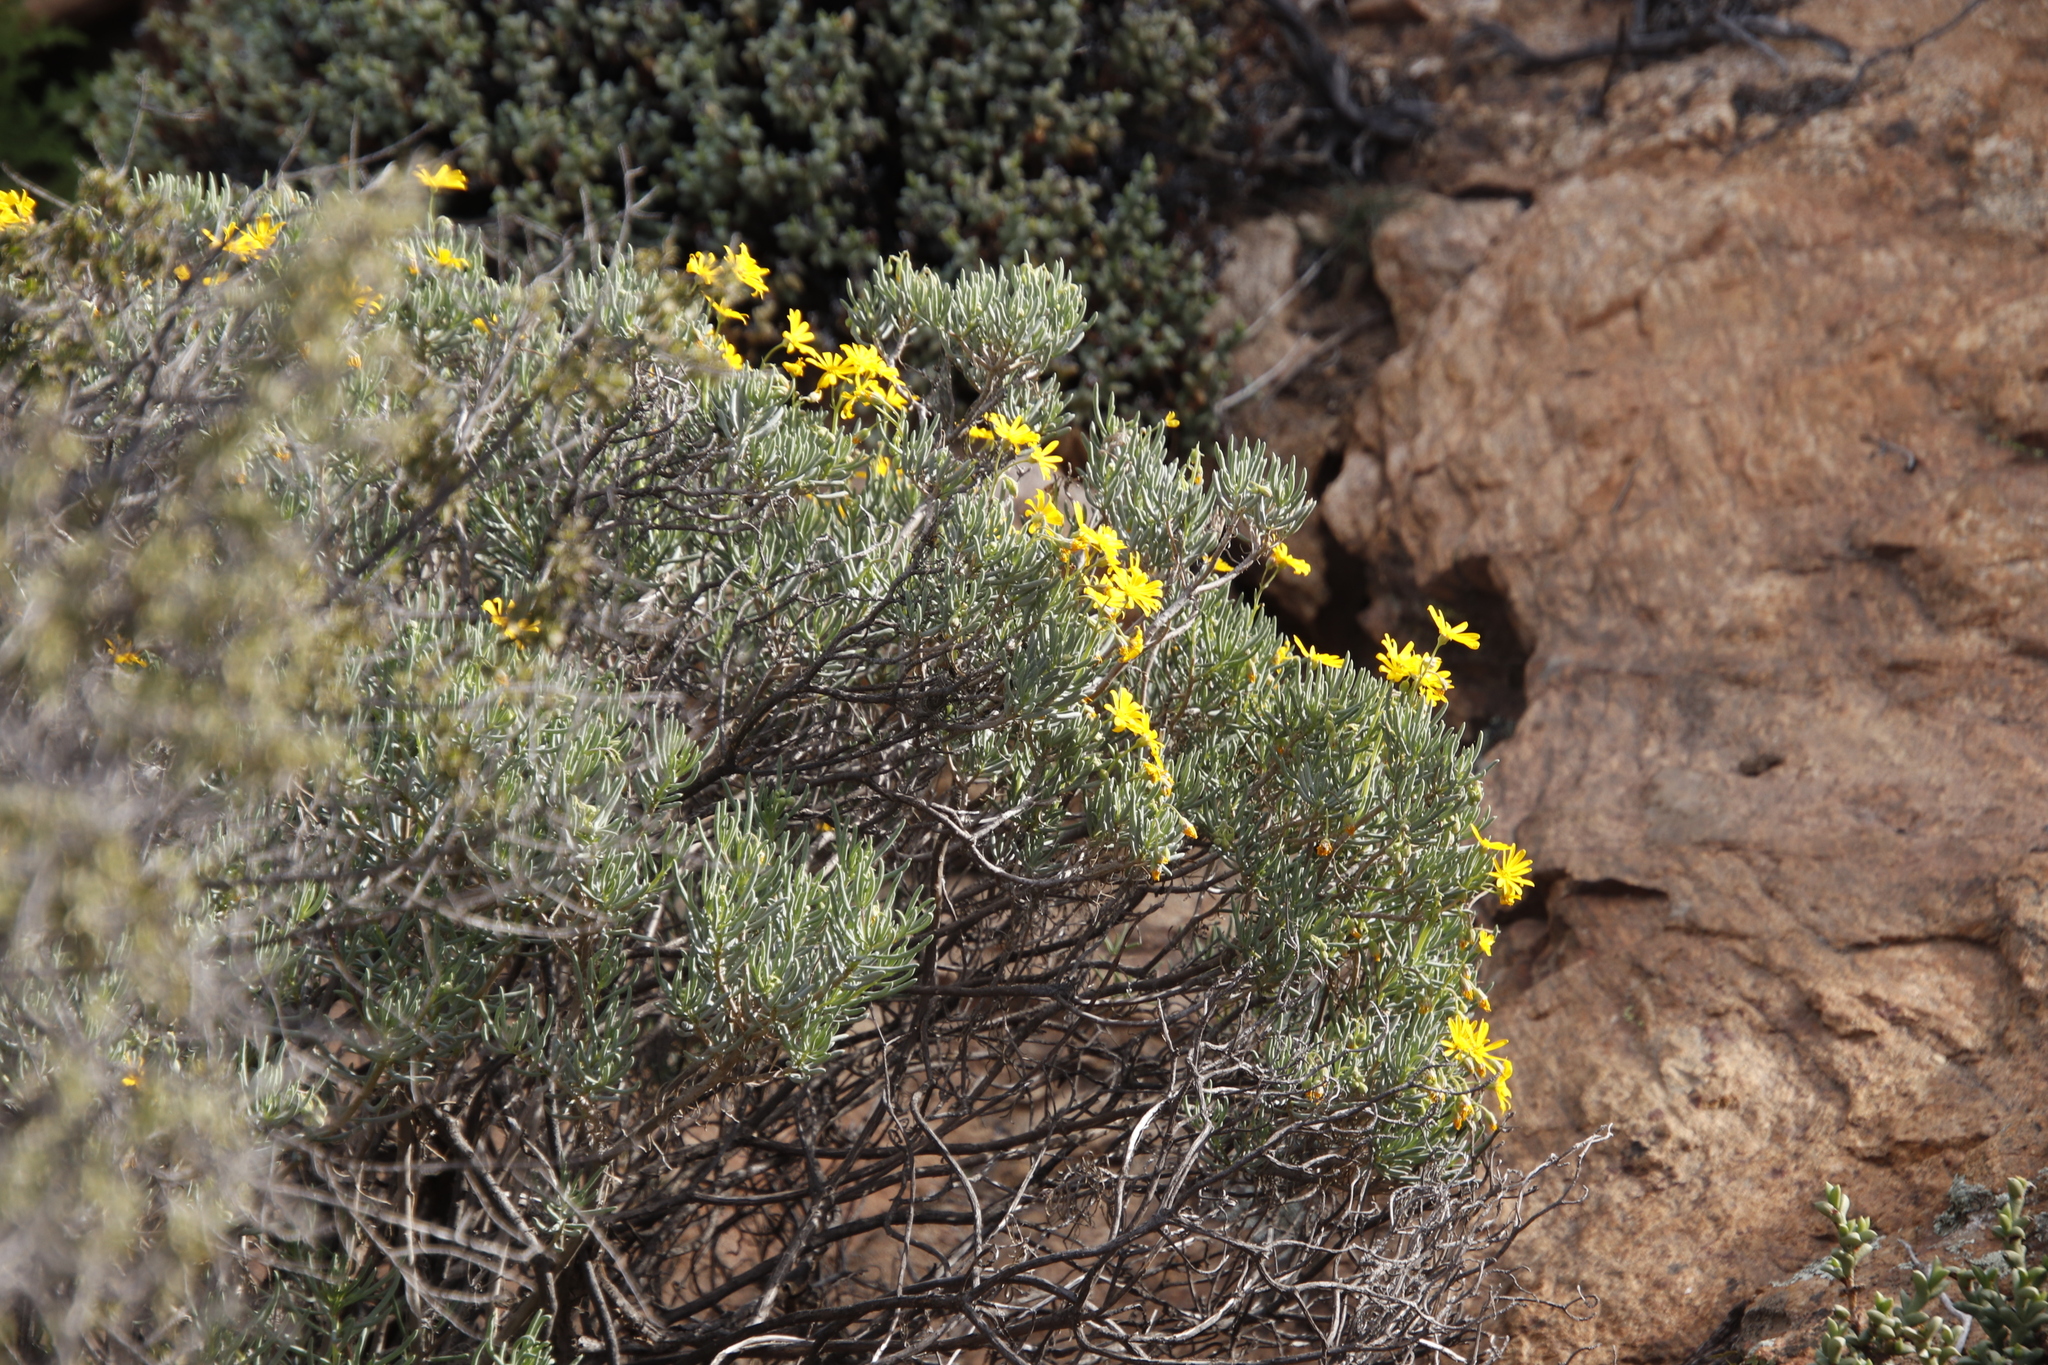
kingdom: Plantae
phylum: Tracheophyta
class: Magnoliopsida
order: Asterales
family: Asteraceae
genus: Crassothonna
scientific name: Crassothonna cylindrica
